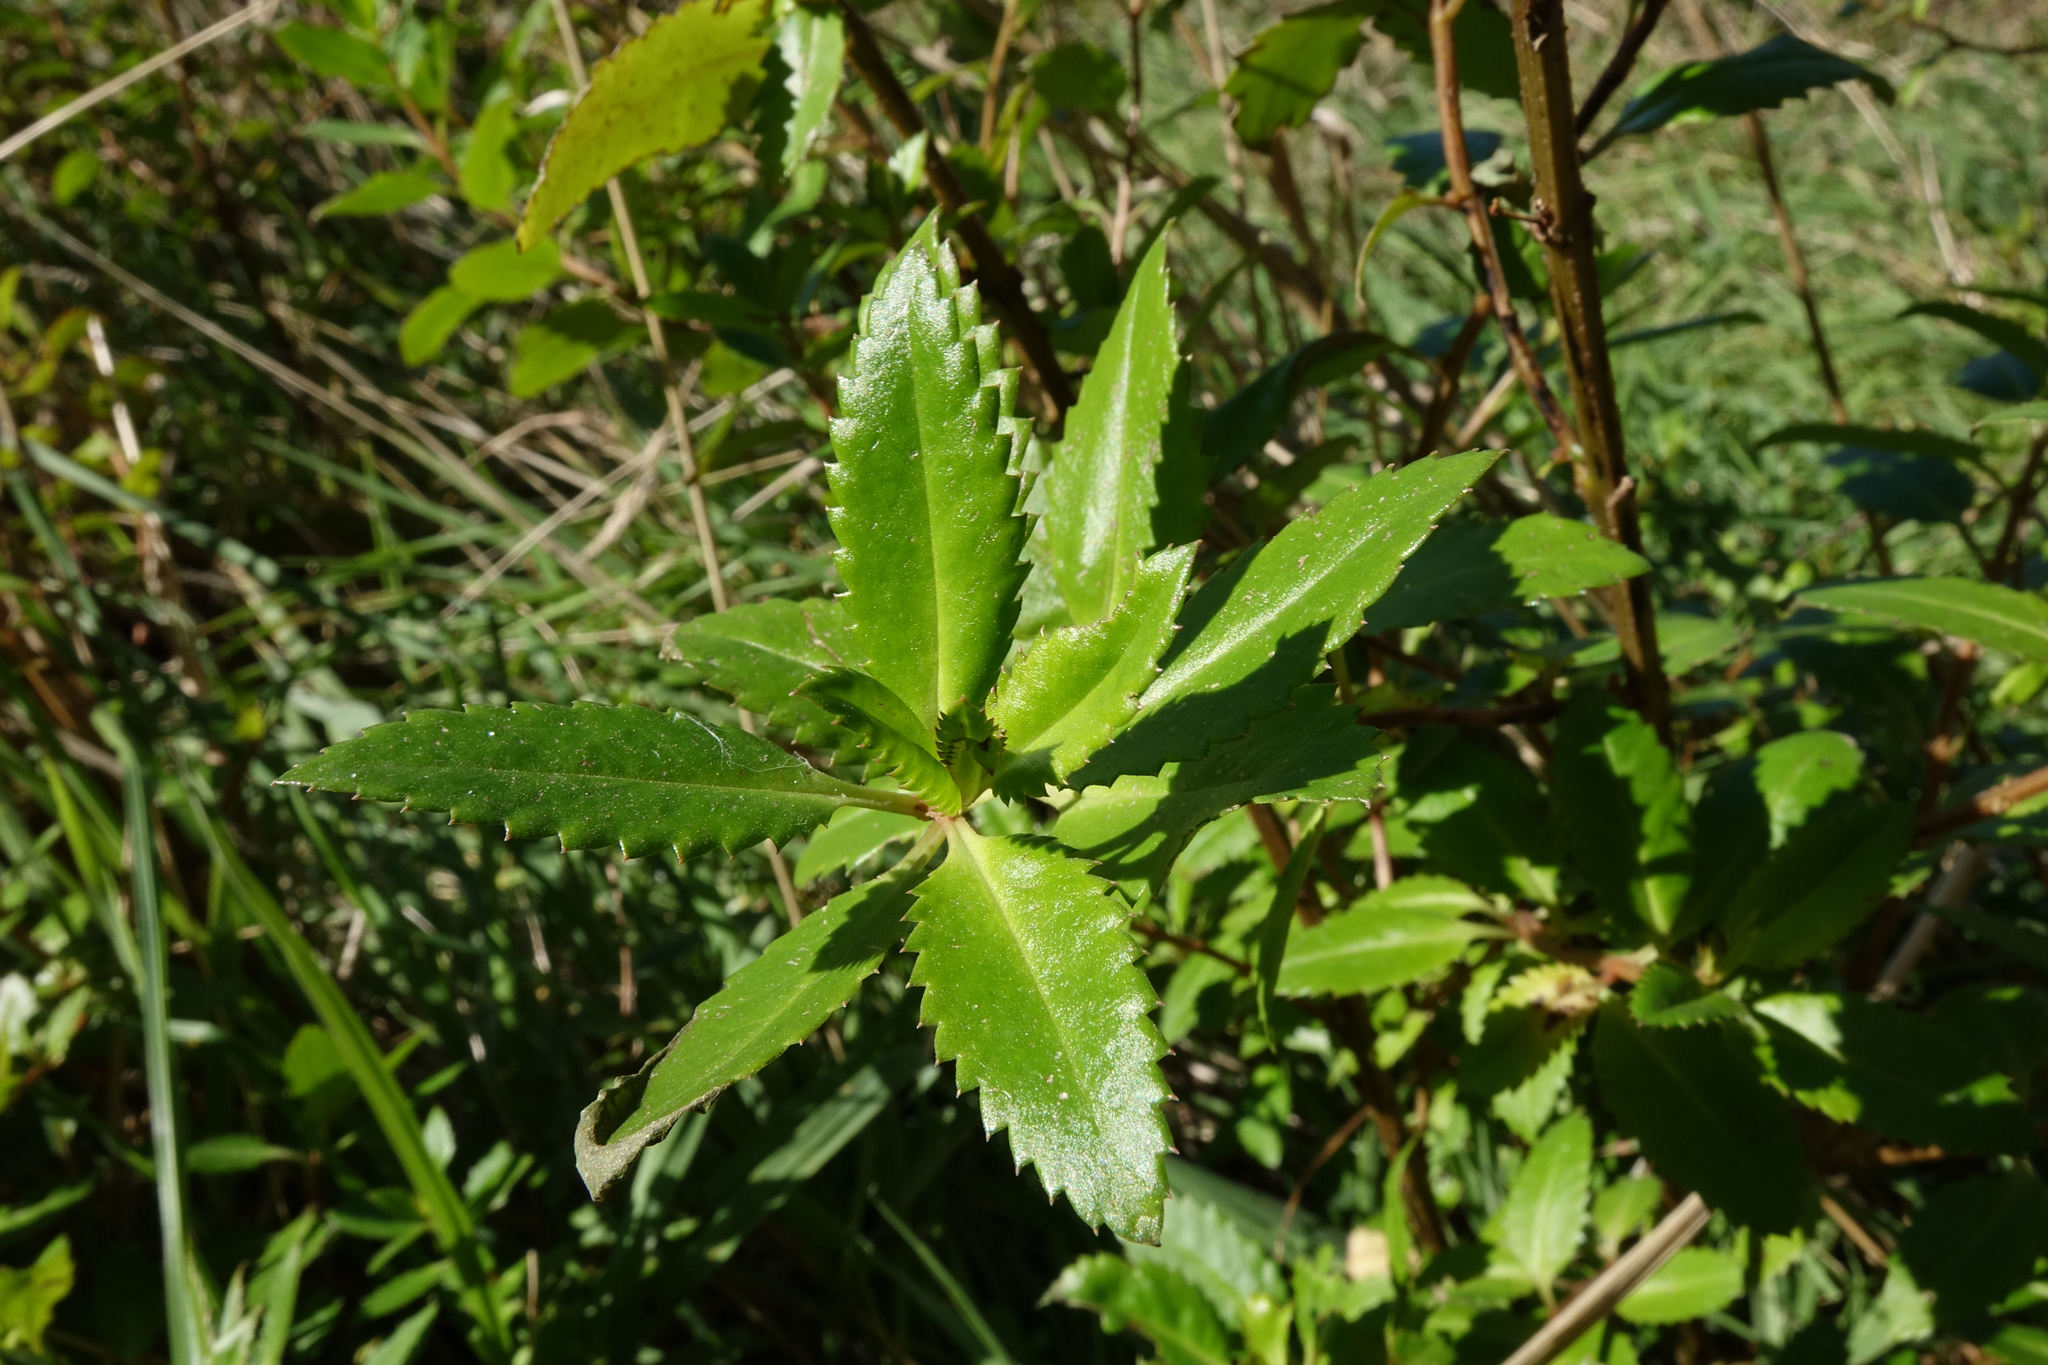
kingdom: Plantae
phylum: Tracheophyta
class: Magnoliopsida
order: Saxifragales
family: Haloragaceae
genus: Haloragis
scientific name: Haloragis erecta
